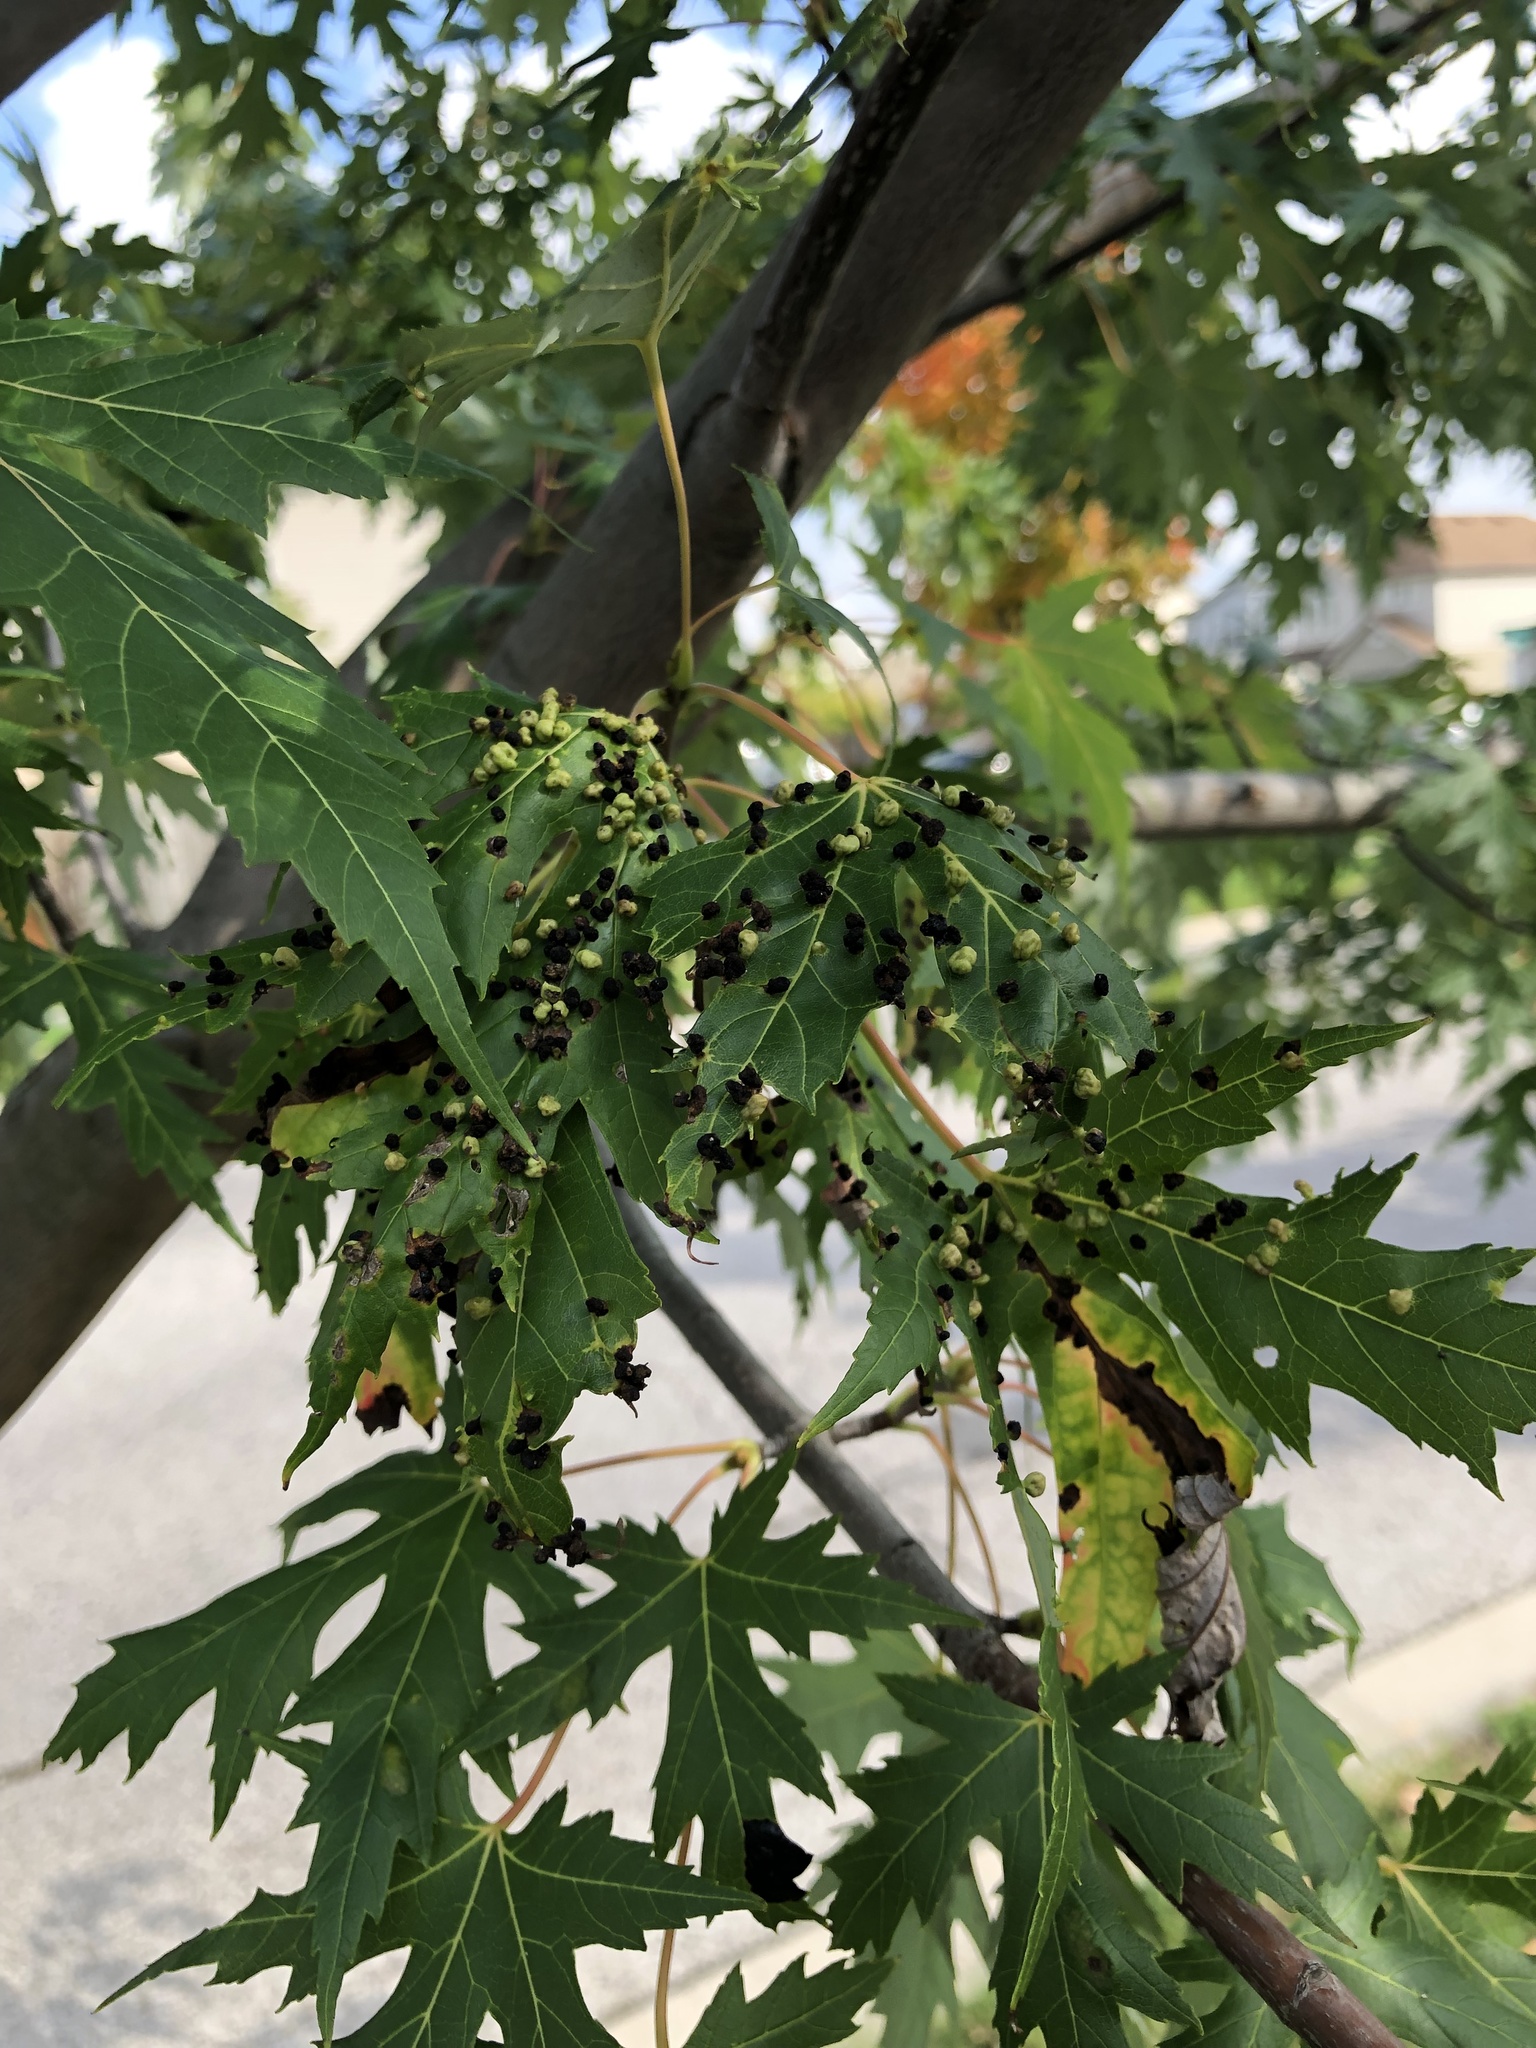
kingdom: Animalia
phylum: Arthropoda
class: Arachnida
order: Trombidiformes
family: Eriophyidae
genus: Vasates
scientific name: Vasates quadripedes
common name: Maple bladder gall mite
